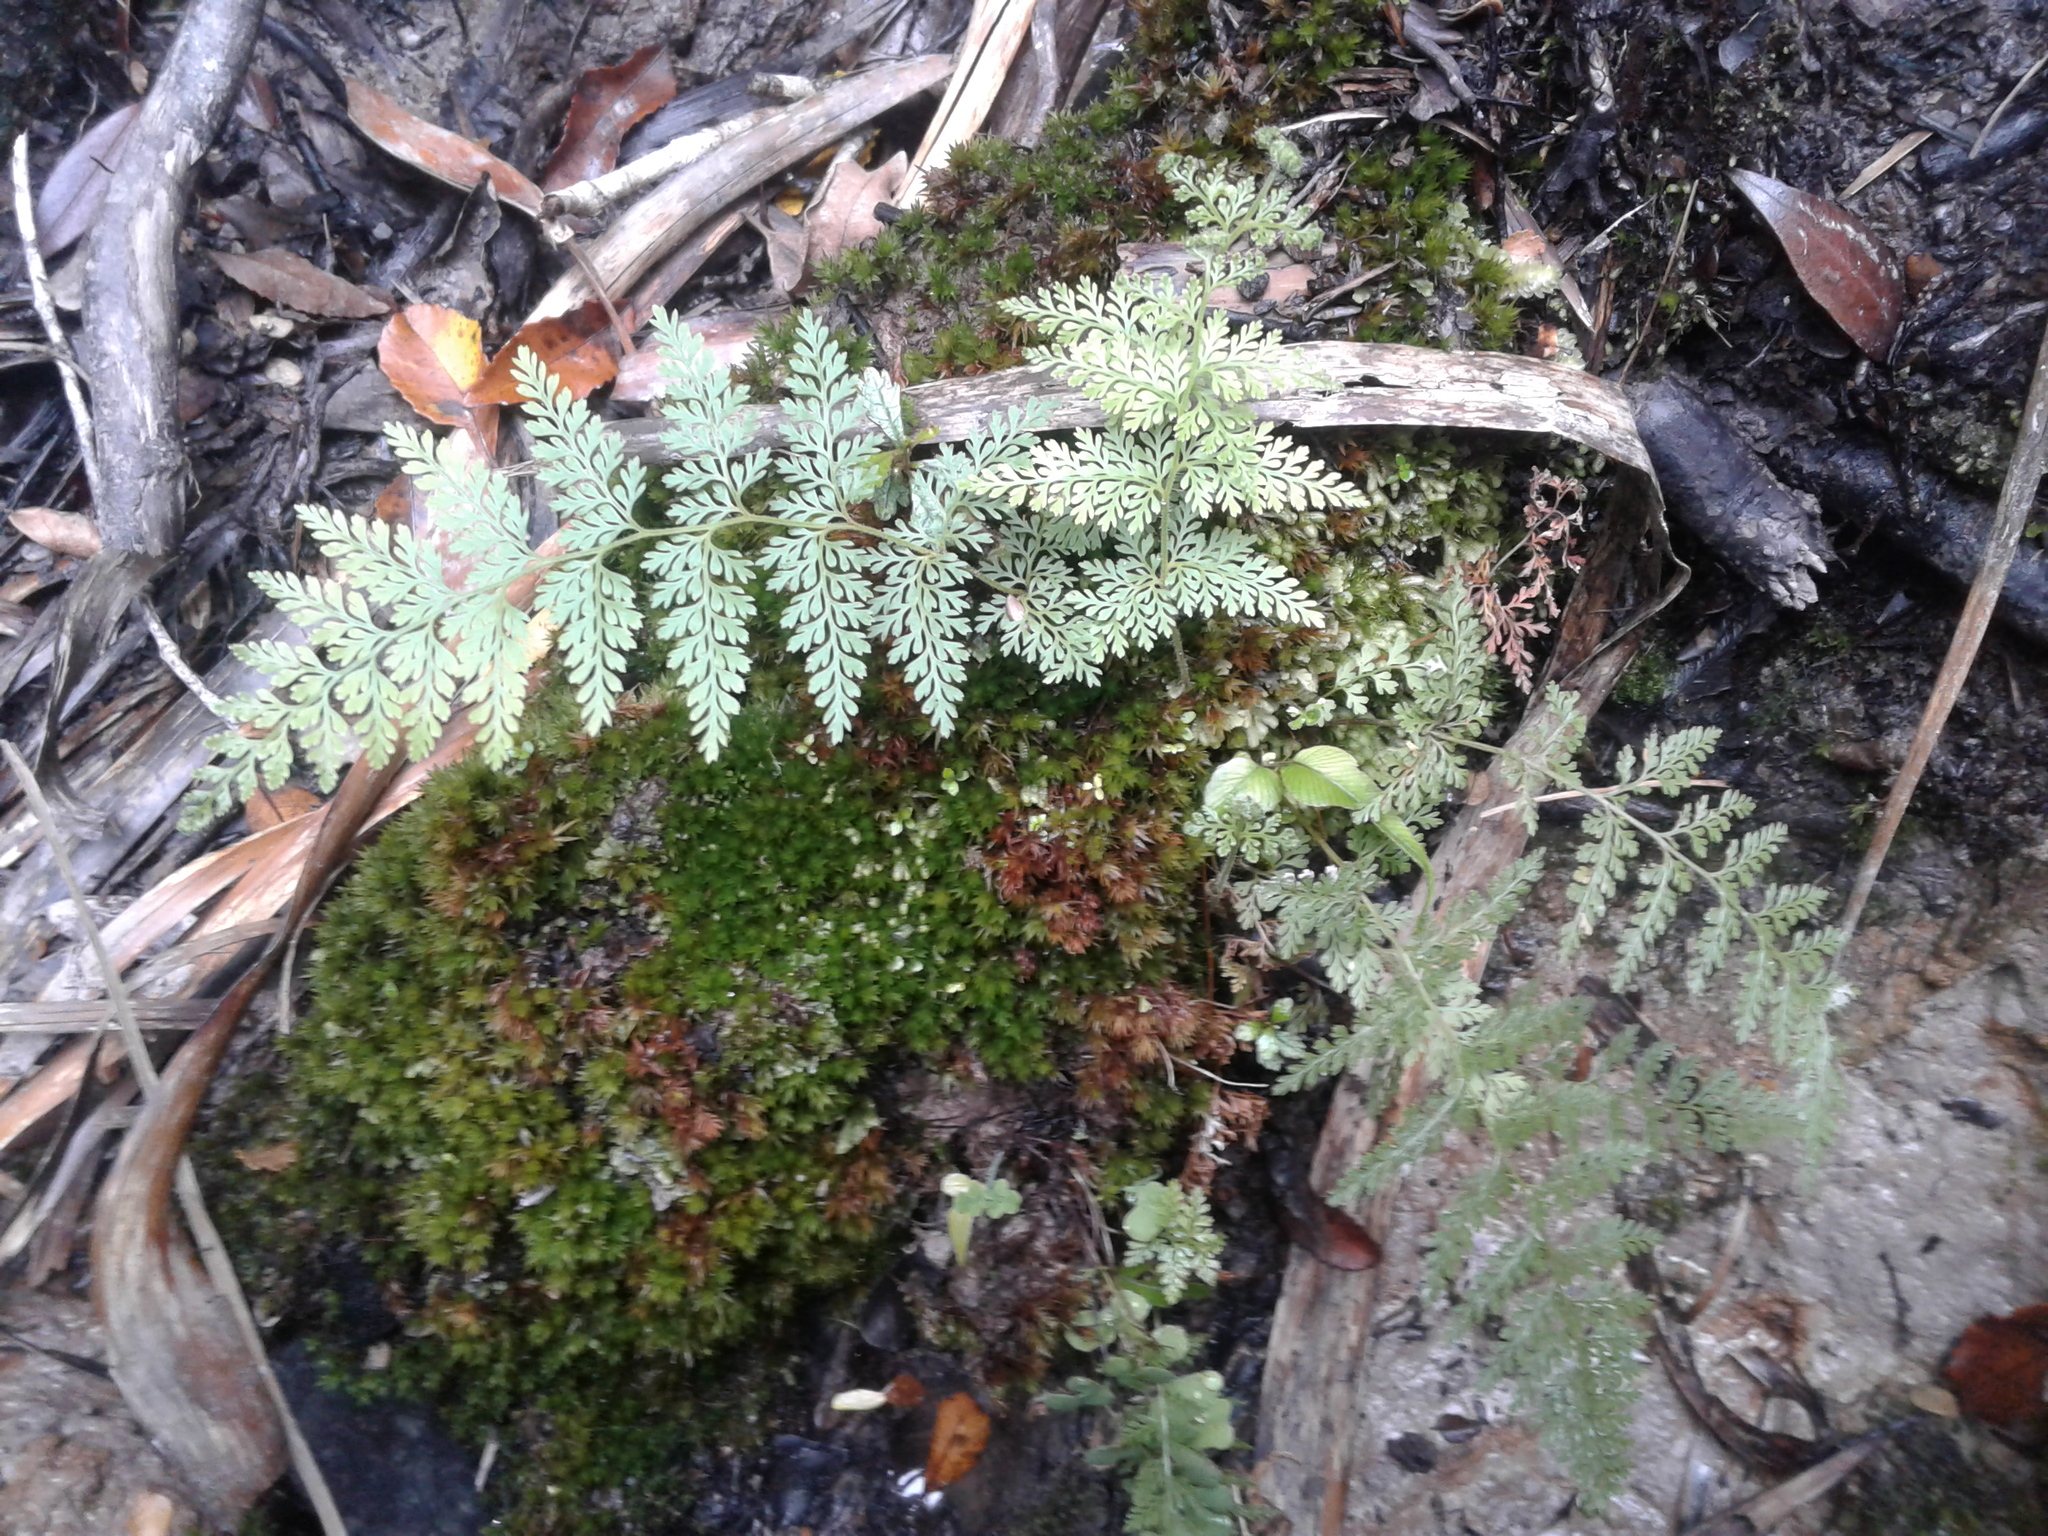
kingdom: Plantae
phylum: Tracheophyta
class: Polypodiopsida
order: Polypodiales
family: Dennstaedtiaceae
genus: Paesia
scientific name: Paesia scaberula
